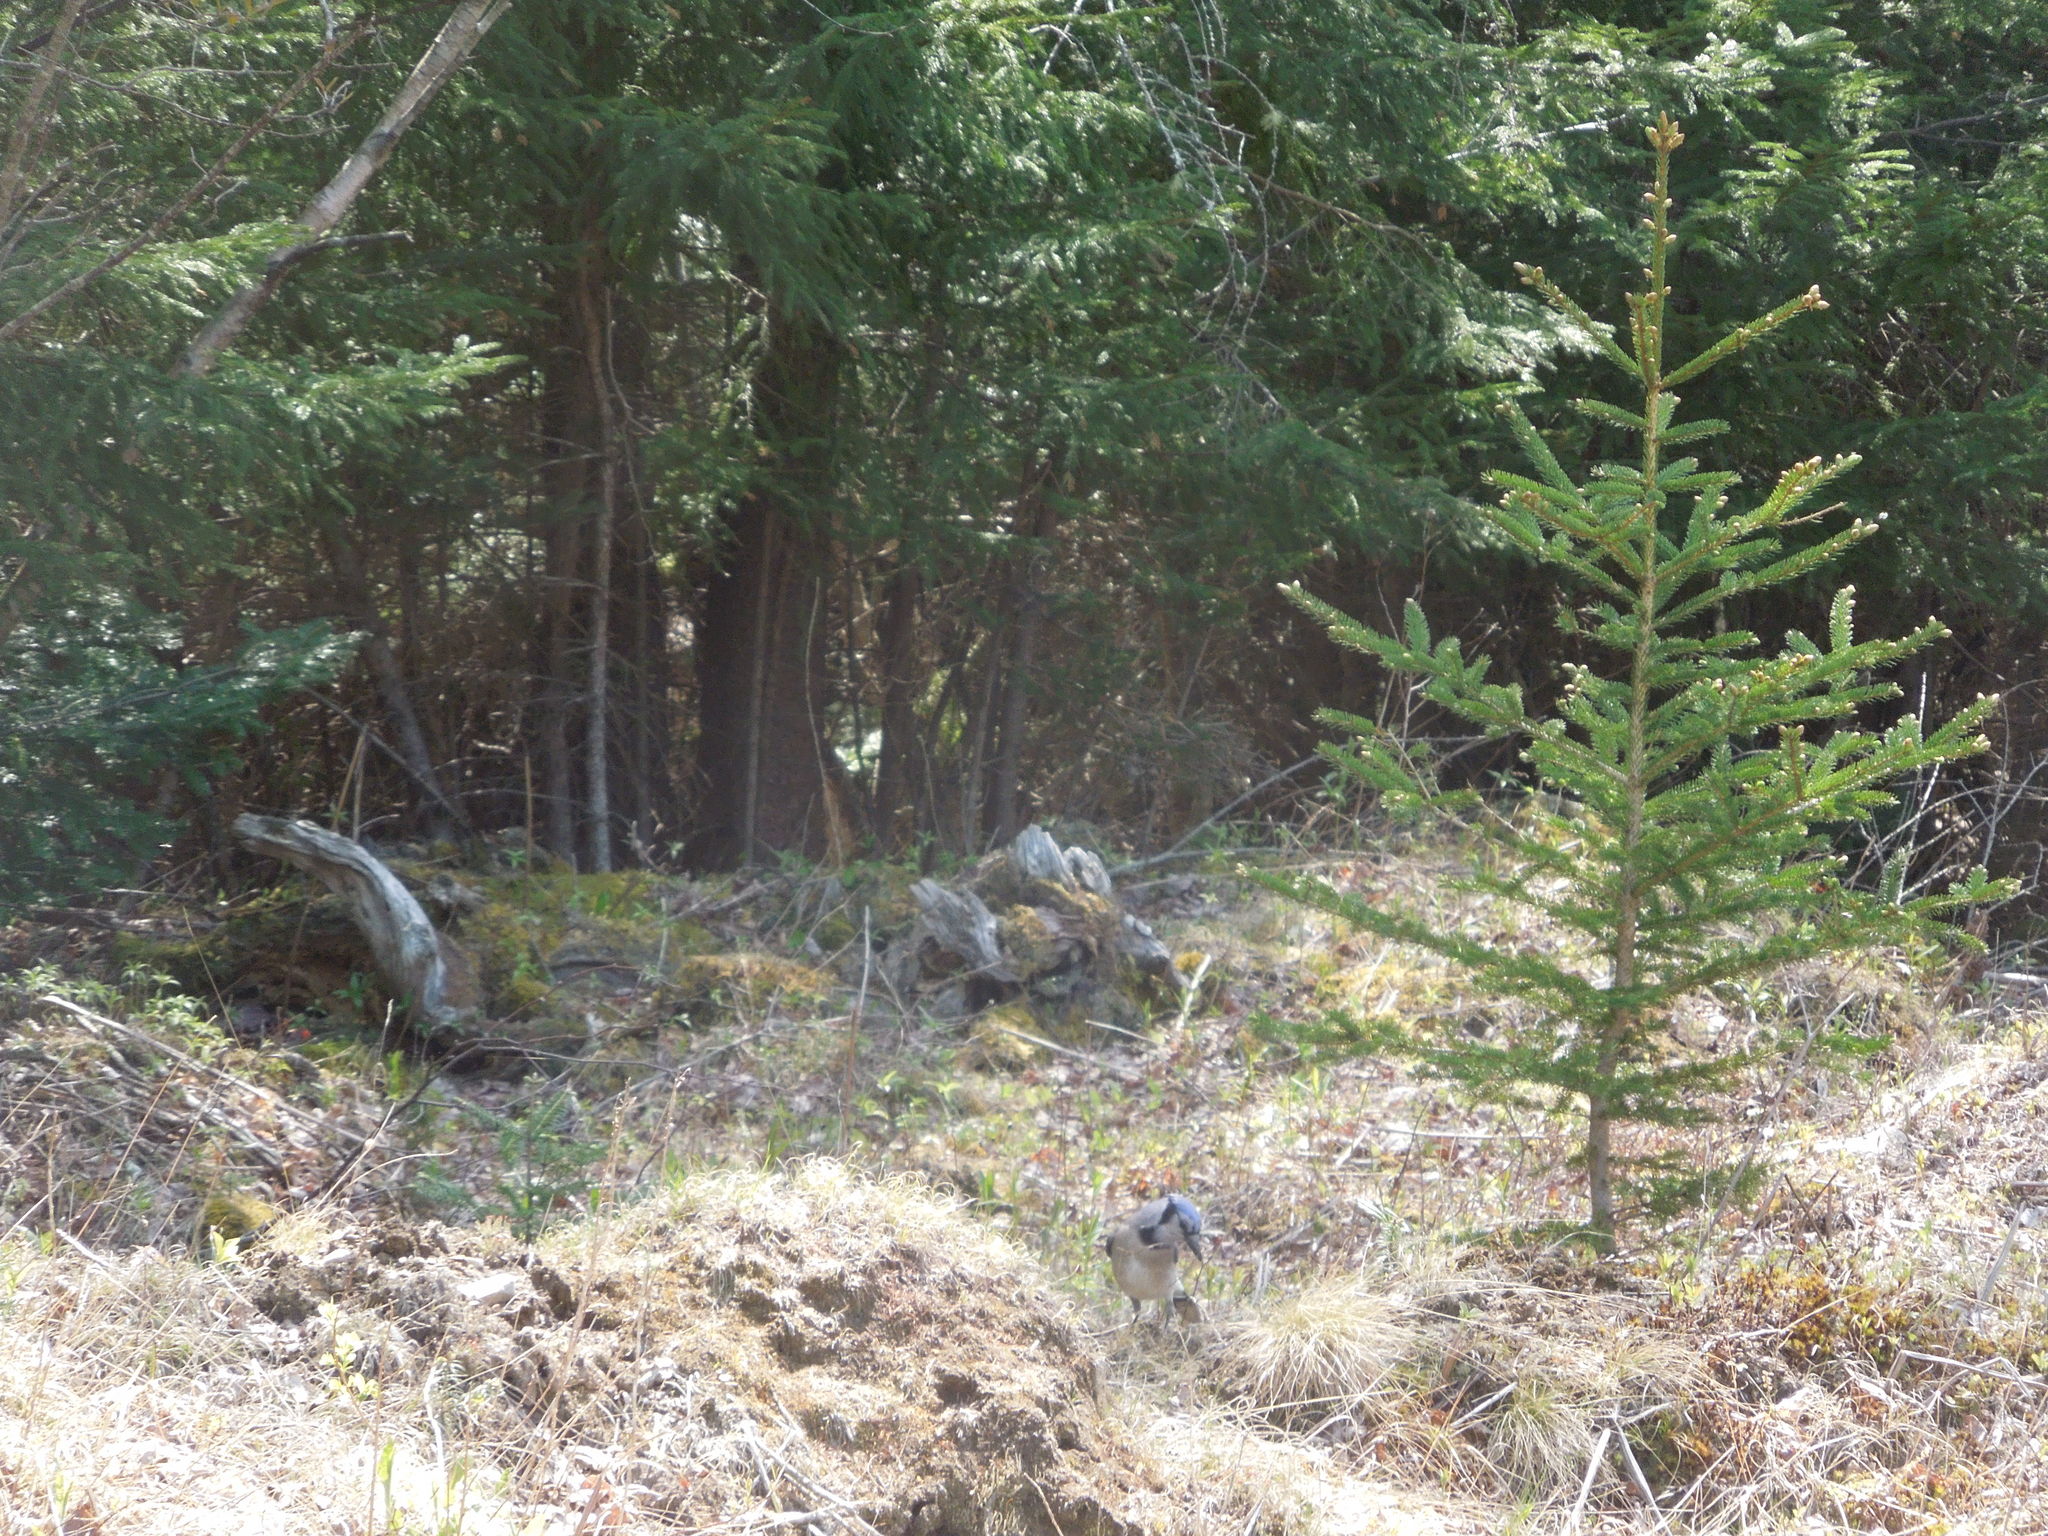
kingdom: Animalia
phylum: Chordata
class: Aves
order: Passeriformes
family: Corvidae
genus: Cyanocitta
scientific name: Cyanocitta cristata
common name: Blue jay
